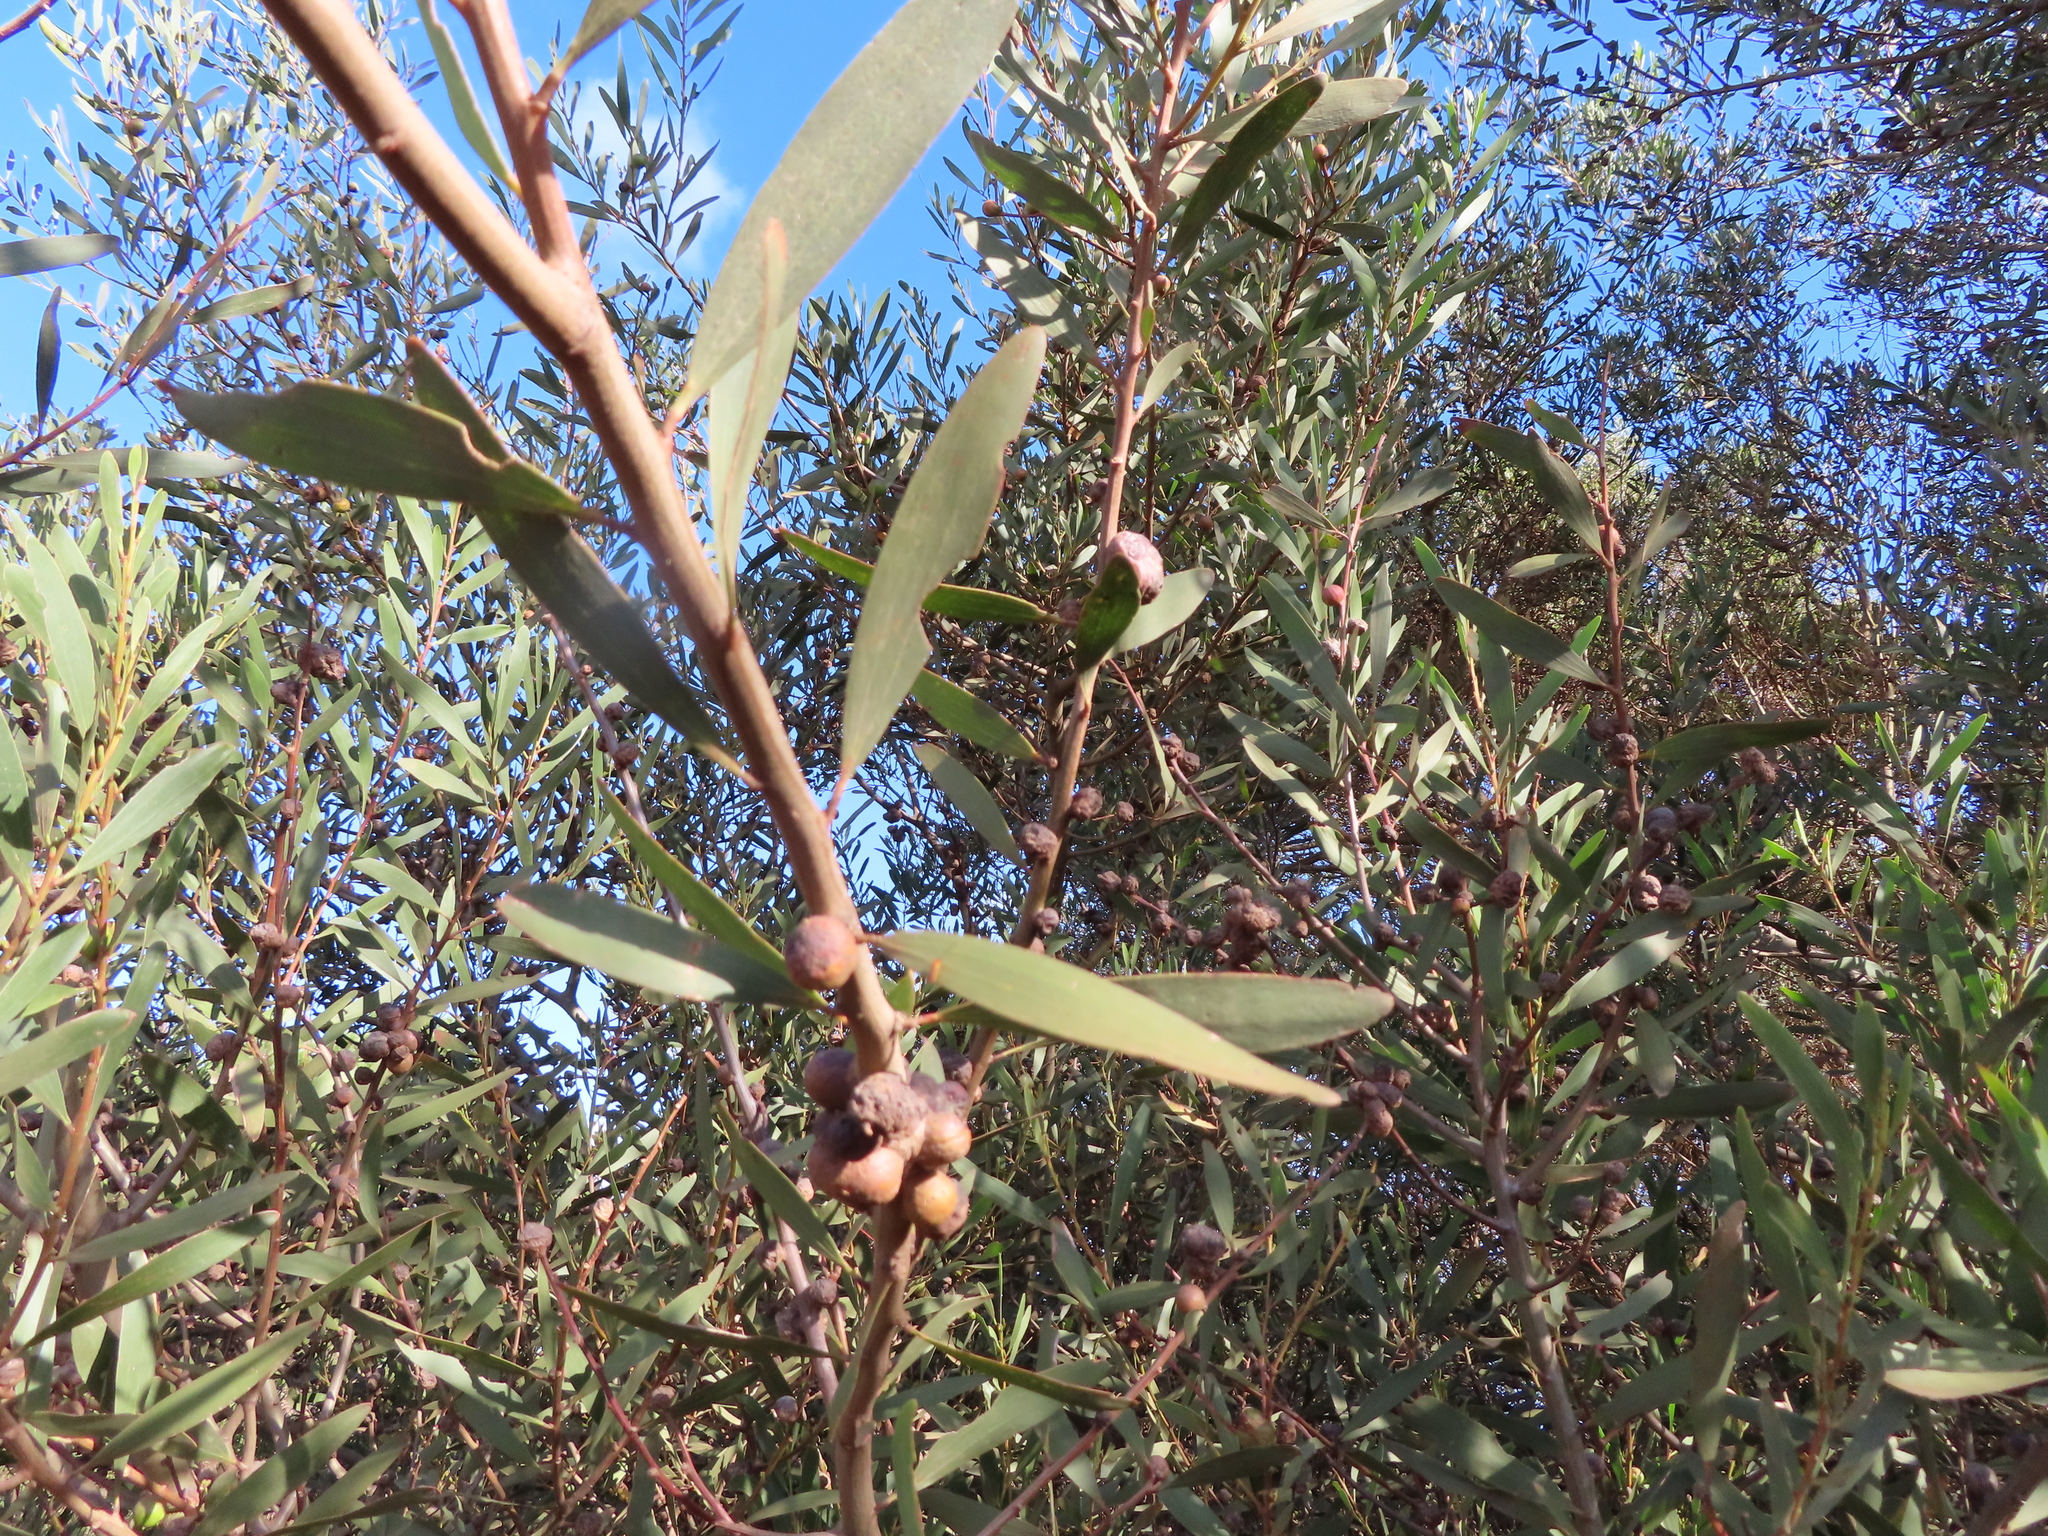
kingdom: Plantae
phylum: Tracheophyta
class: Magnoliopsida
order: Fabales
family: Fabaceae
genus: Acacia
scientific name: Acacia longifolia
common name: Sydney golden wattle
